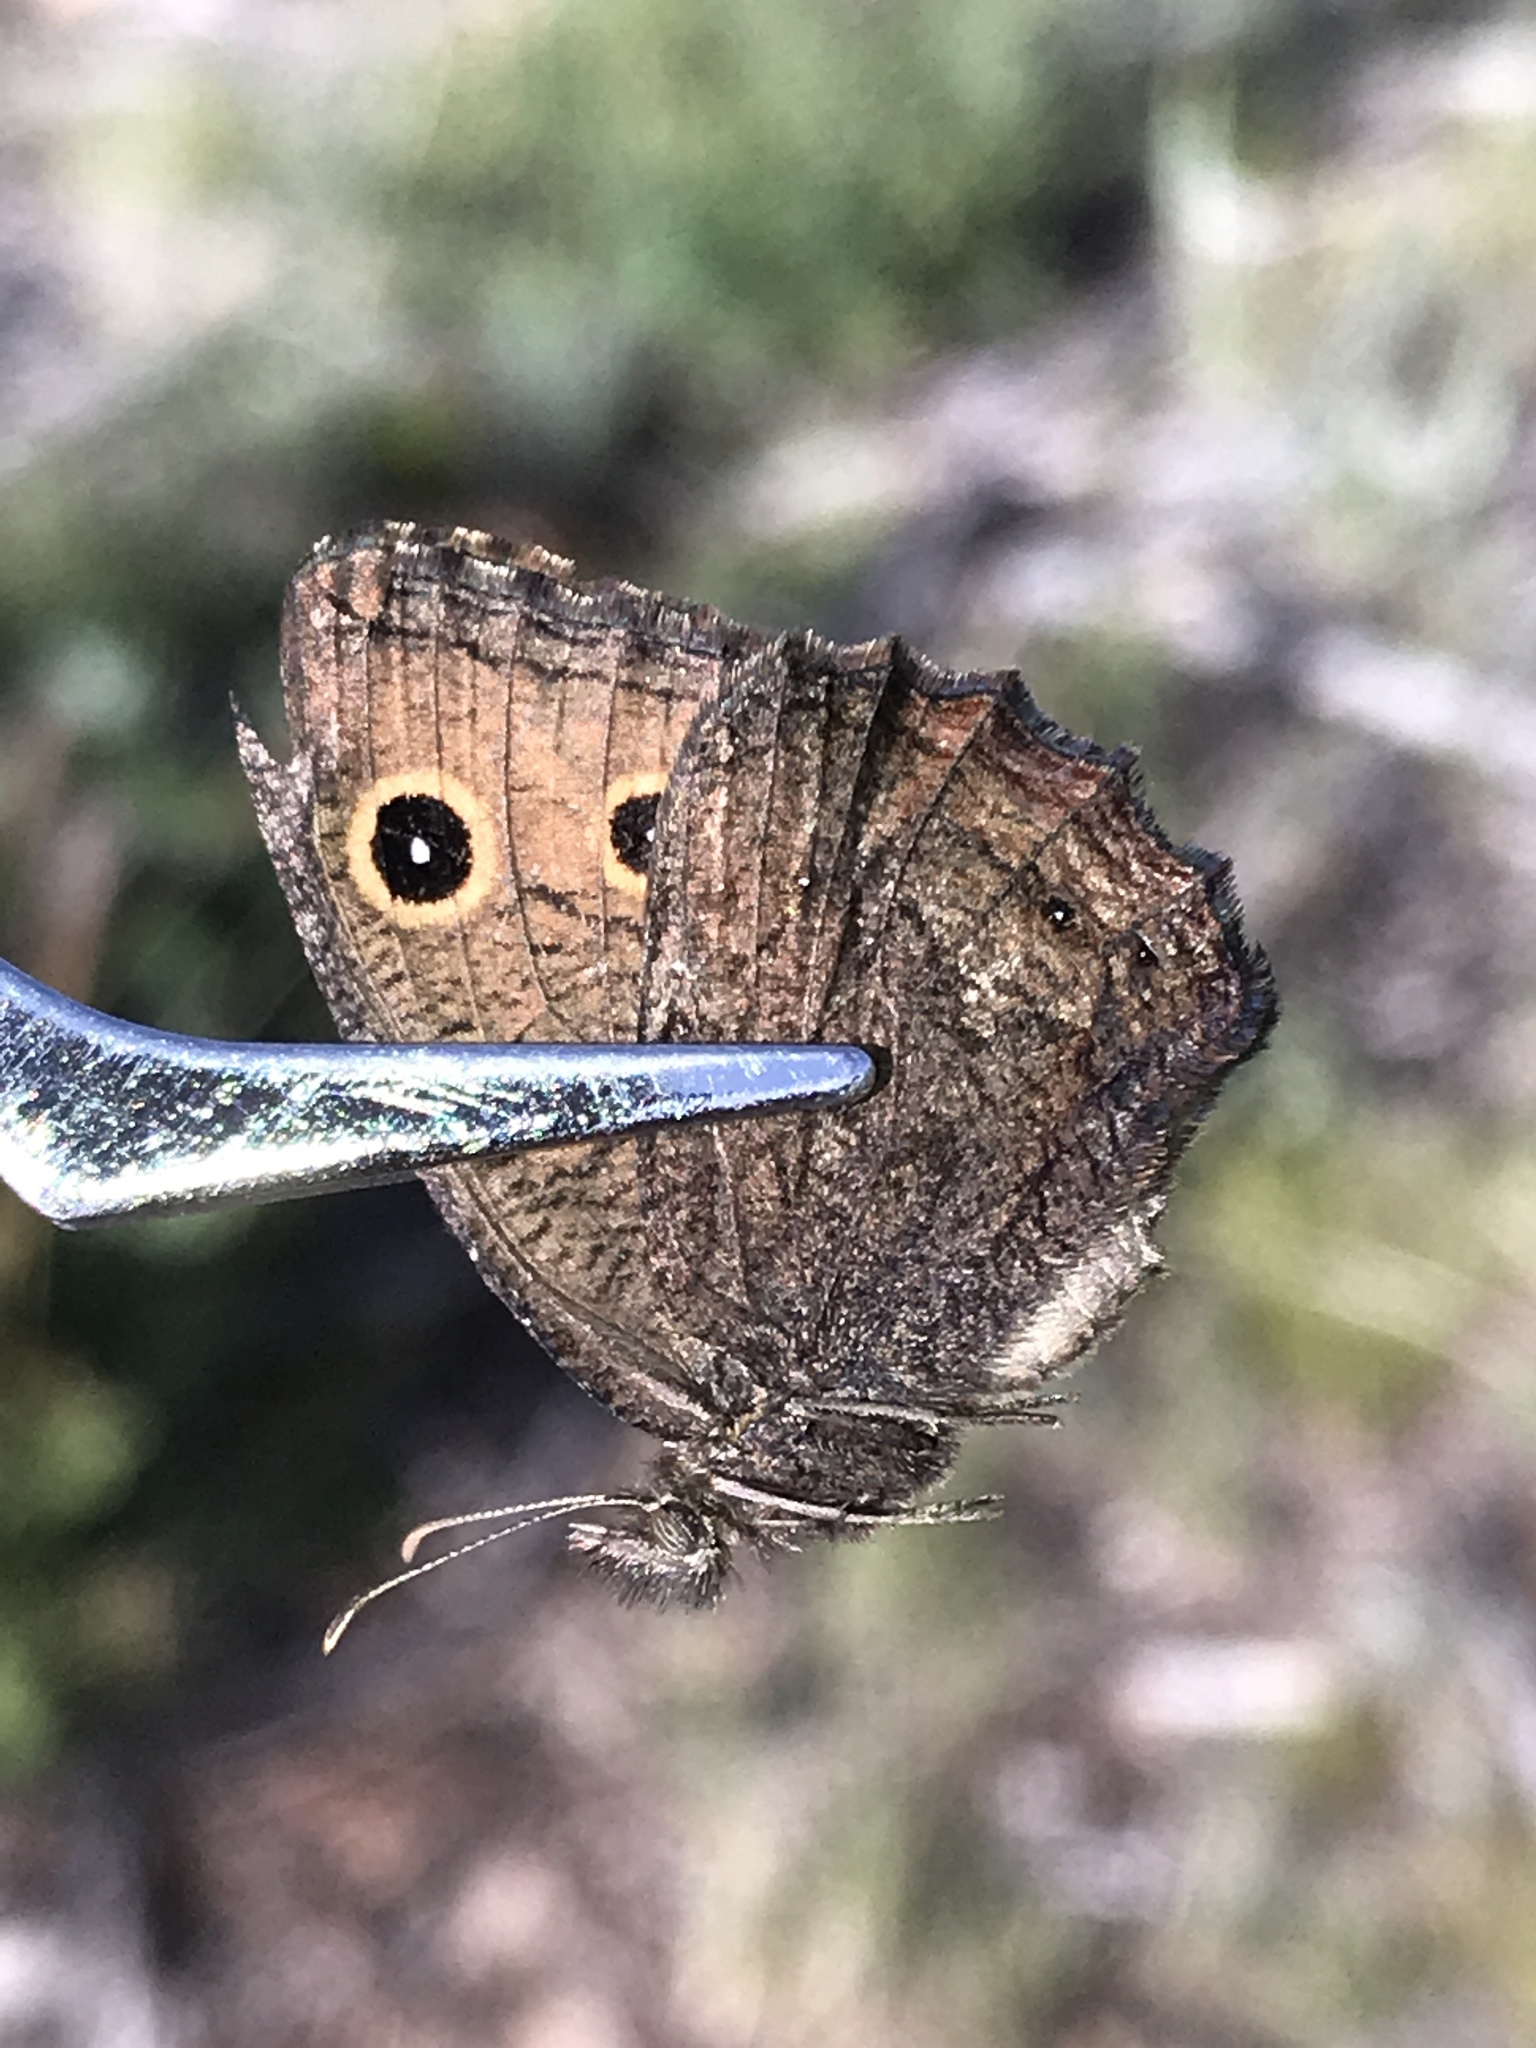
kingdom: Animalia
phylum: Arthropoda
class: Insecta
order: Lepidoptera
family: Nymphalidae
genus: Cercyonis
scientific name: Cercyonis oetus
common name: Small wood-nymph
